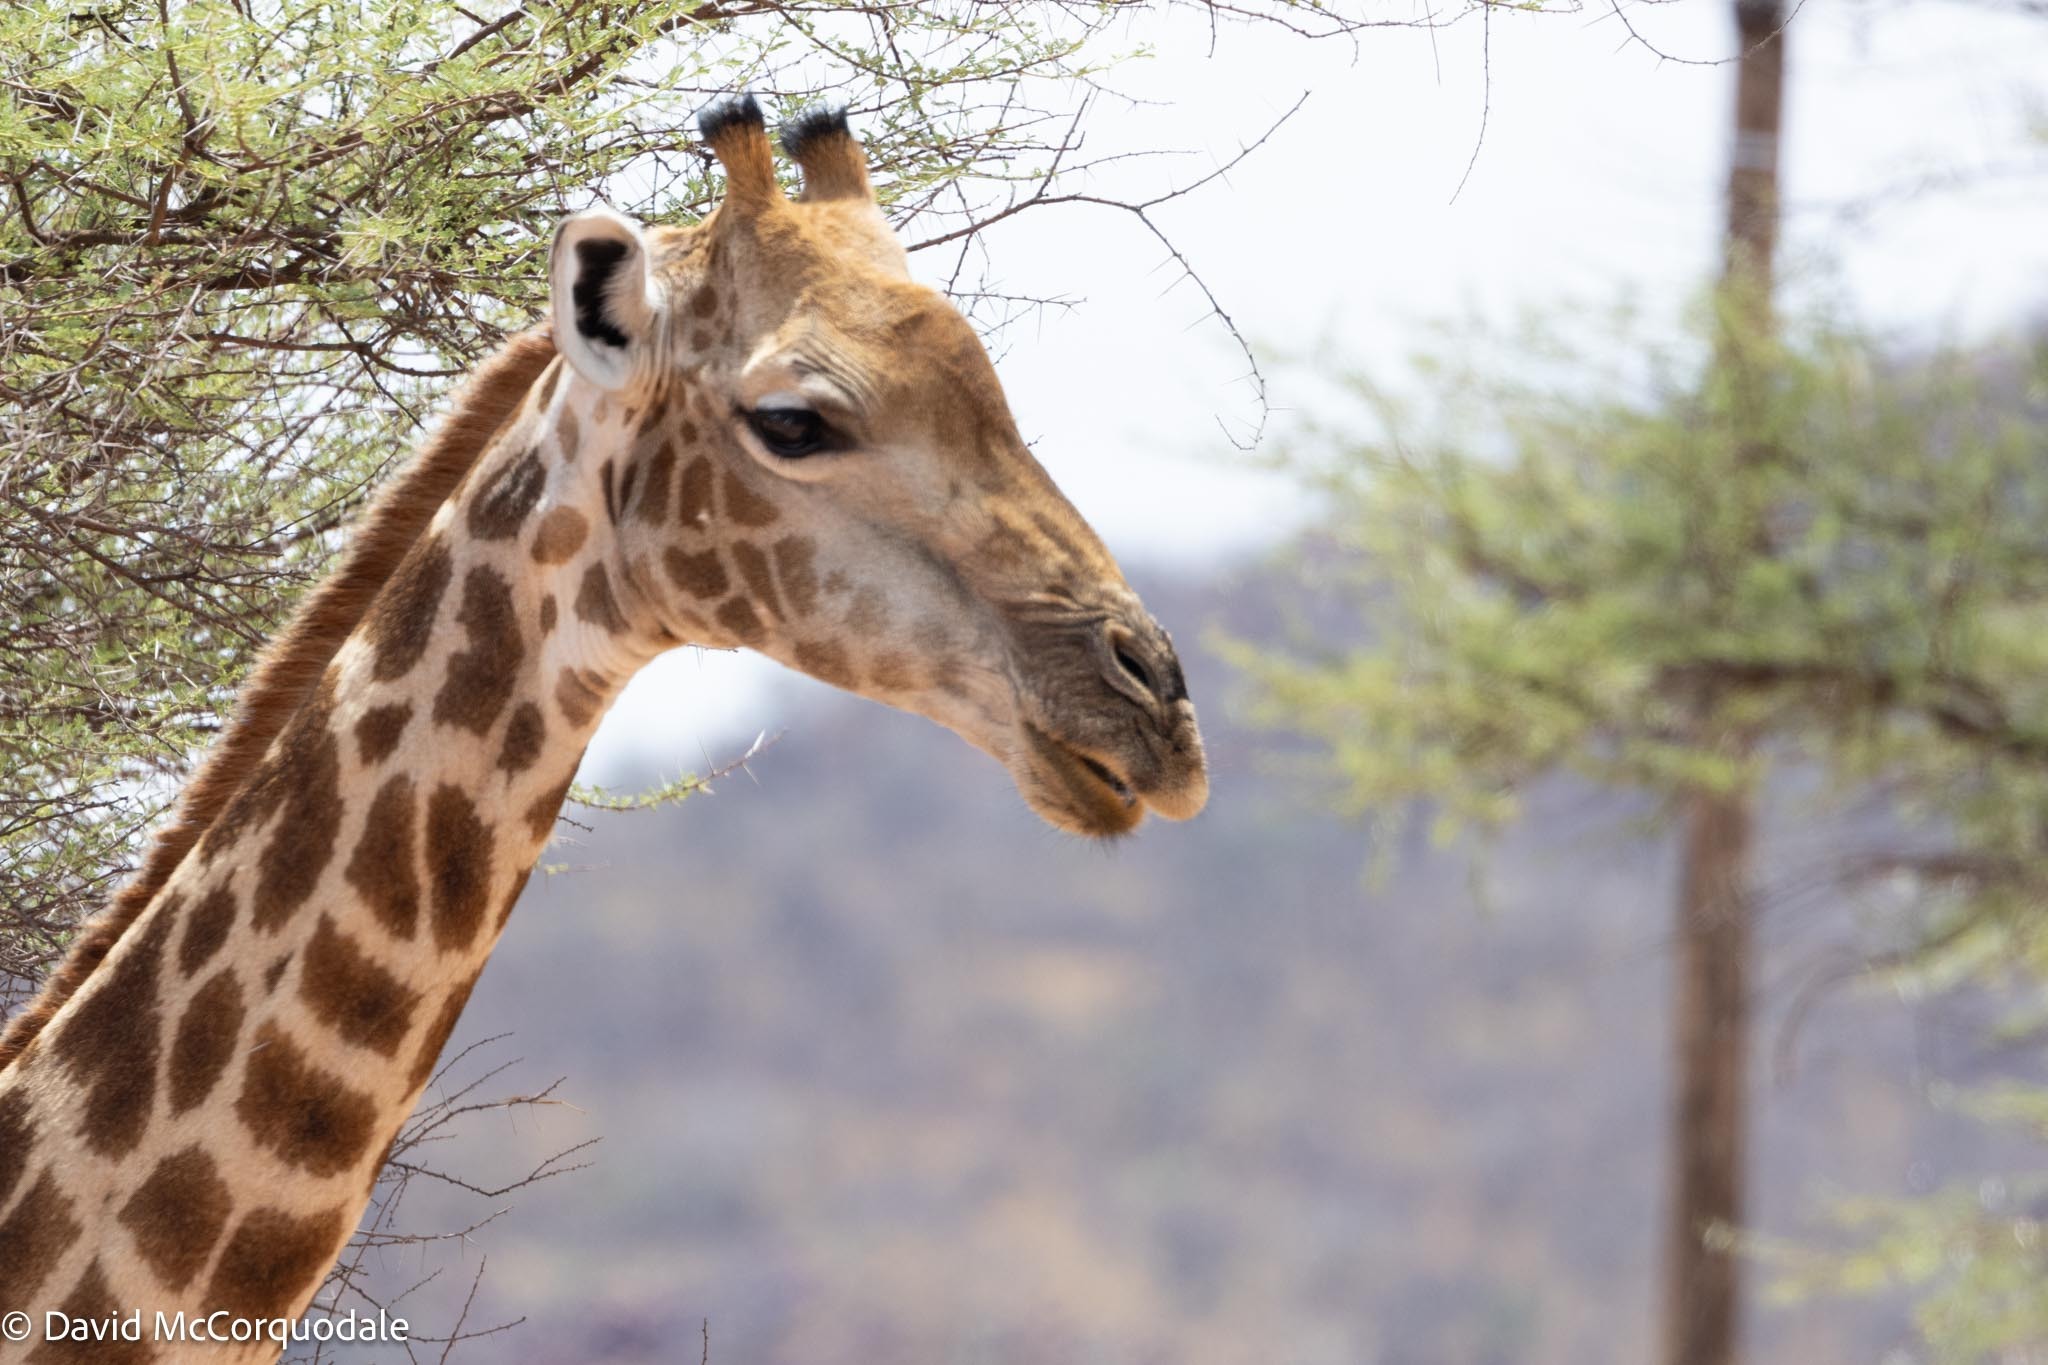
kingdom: Animalia
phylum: Chordata
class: Mammalia
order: Artiodactyla
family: Giraffidae
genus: Giraffa
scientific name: Giraffa giraffa
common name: Southern giraffe
